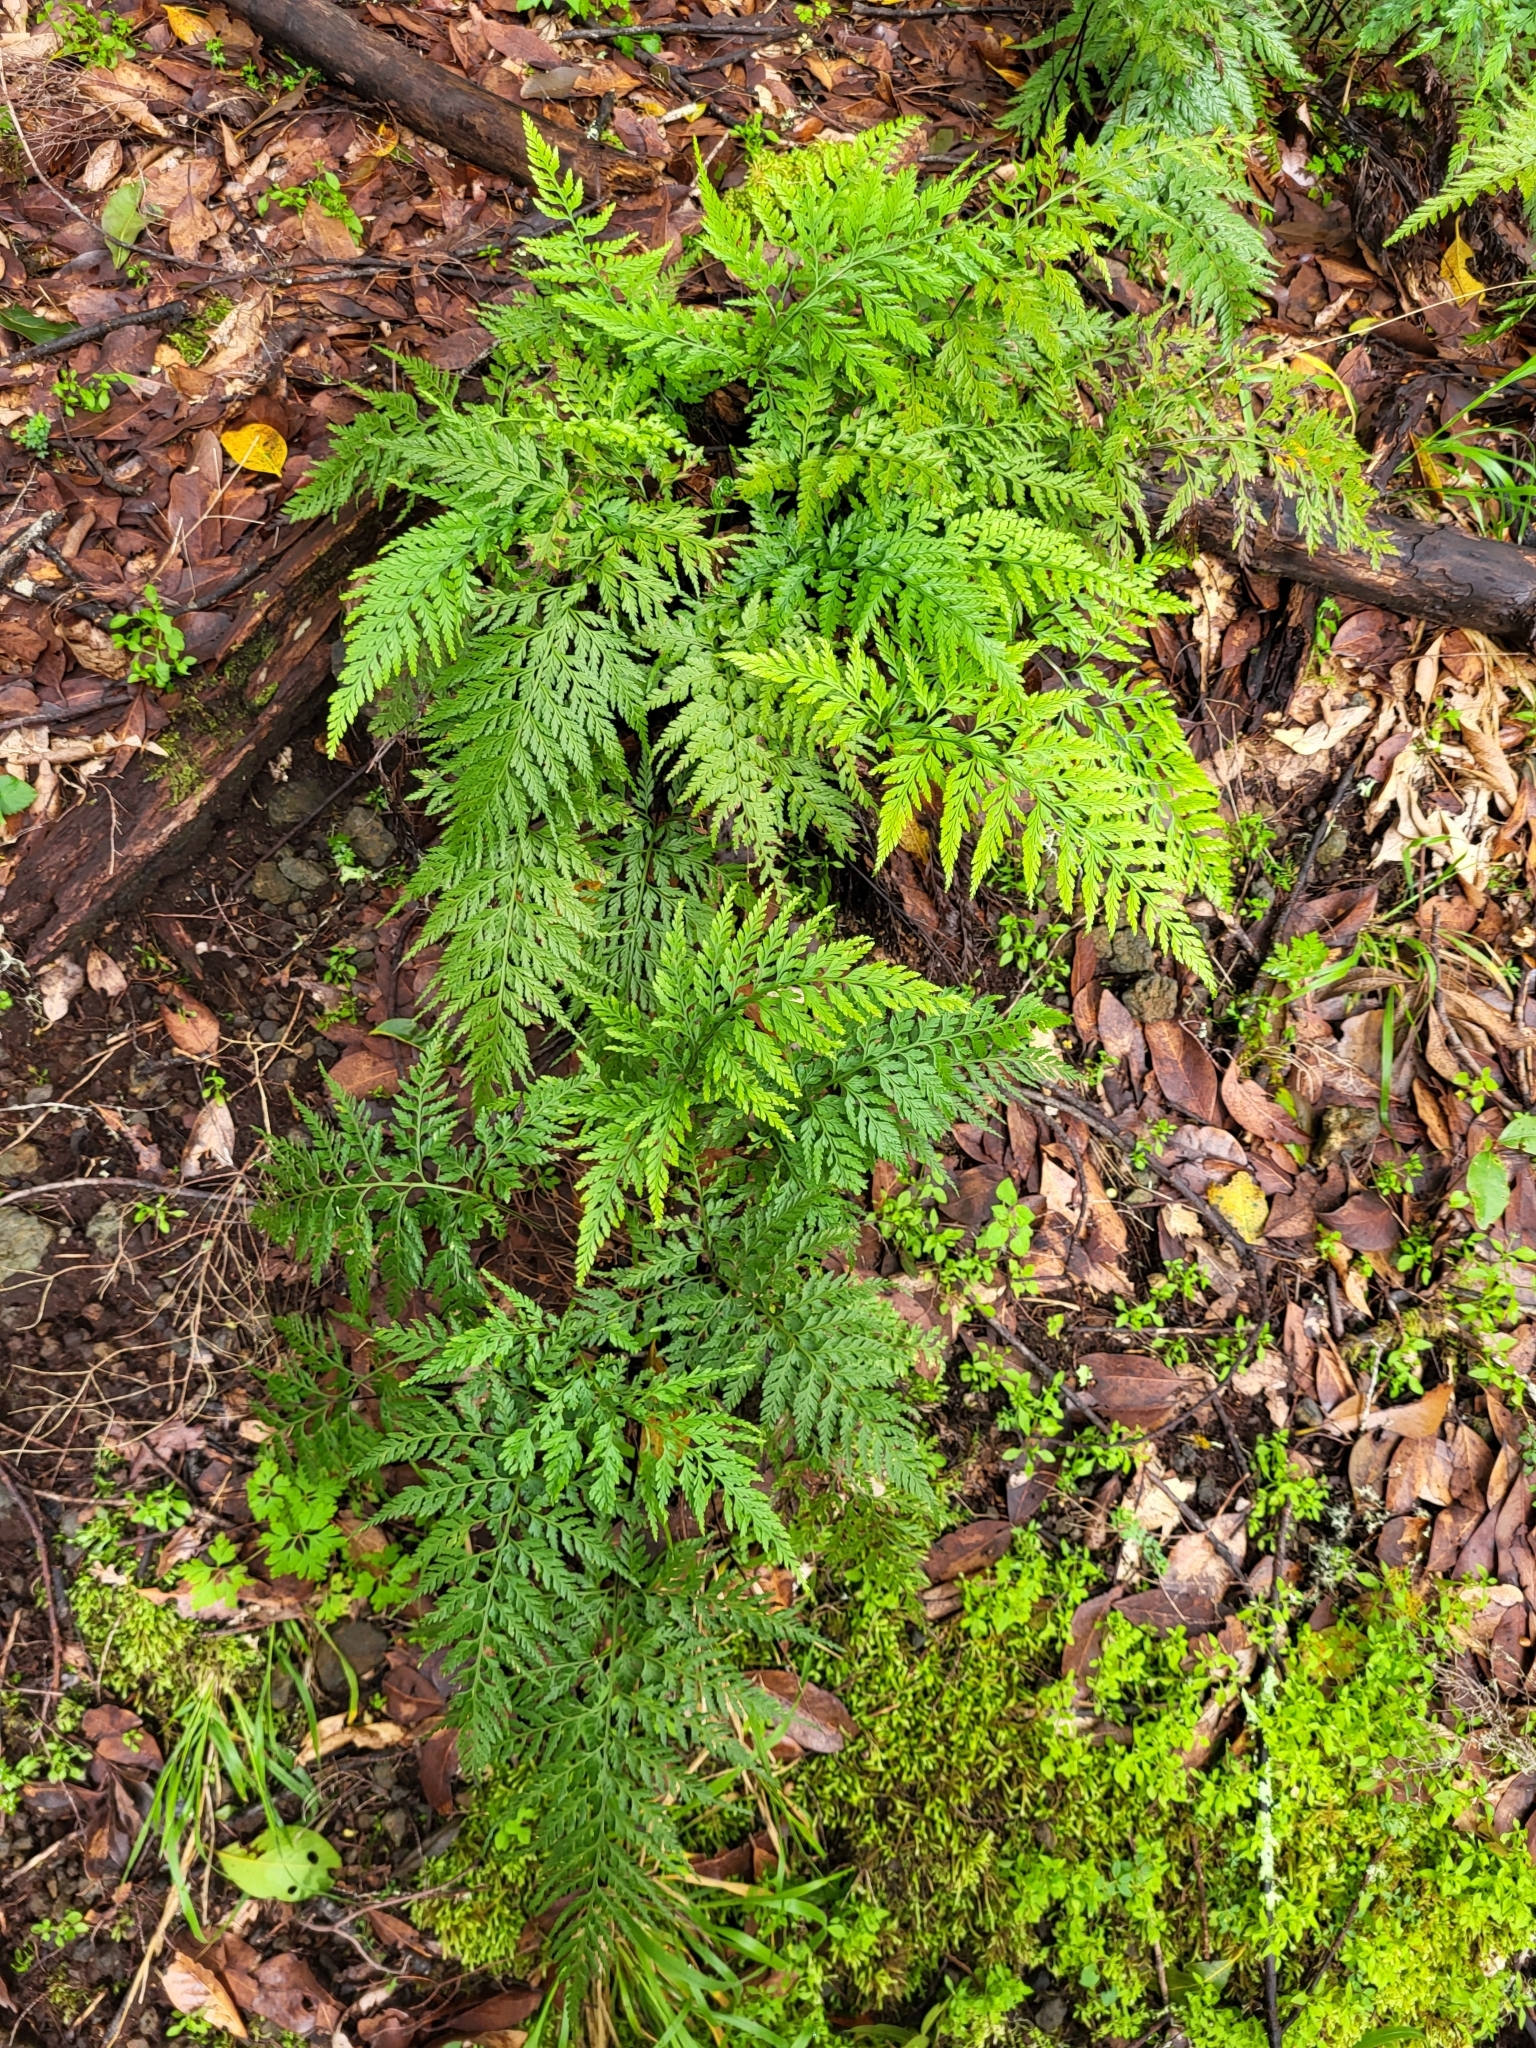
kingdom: Plantae
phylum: Tracheophyta
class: Polypodiopsida
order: Polypodiales
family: Aspleniaceae
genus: Asplenium
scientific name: Asplenium onopteris
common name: Irish spleenwort
